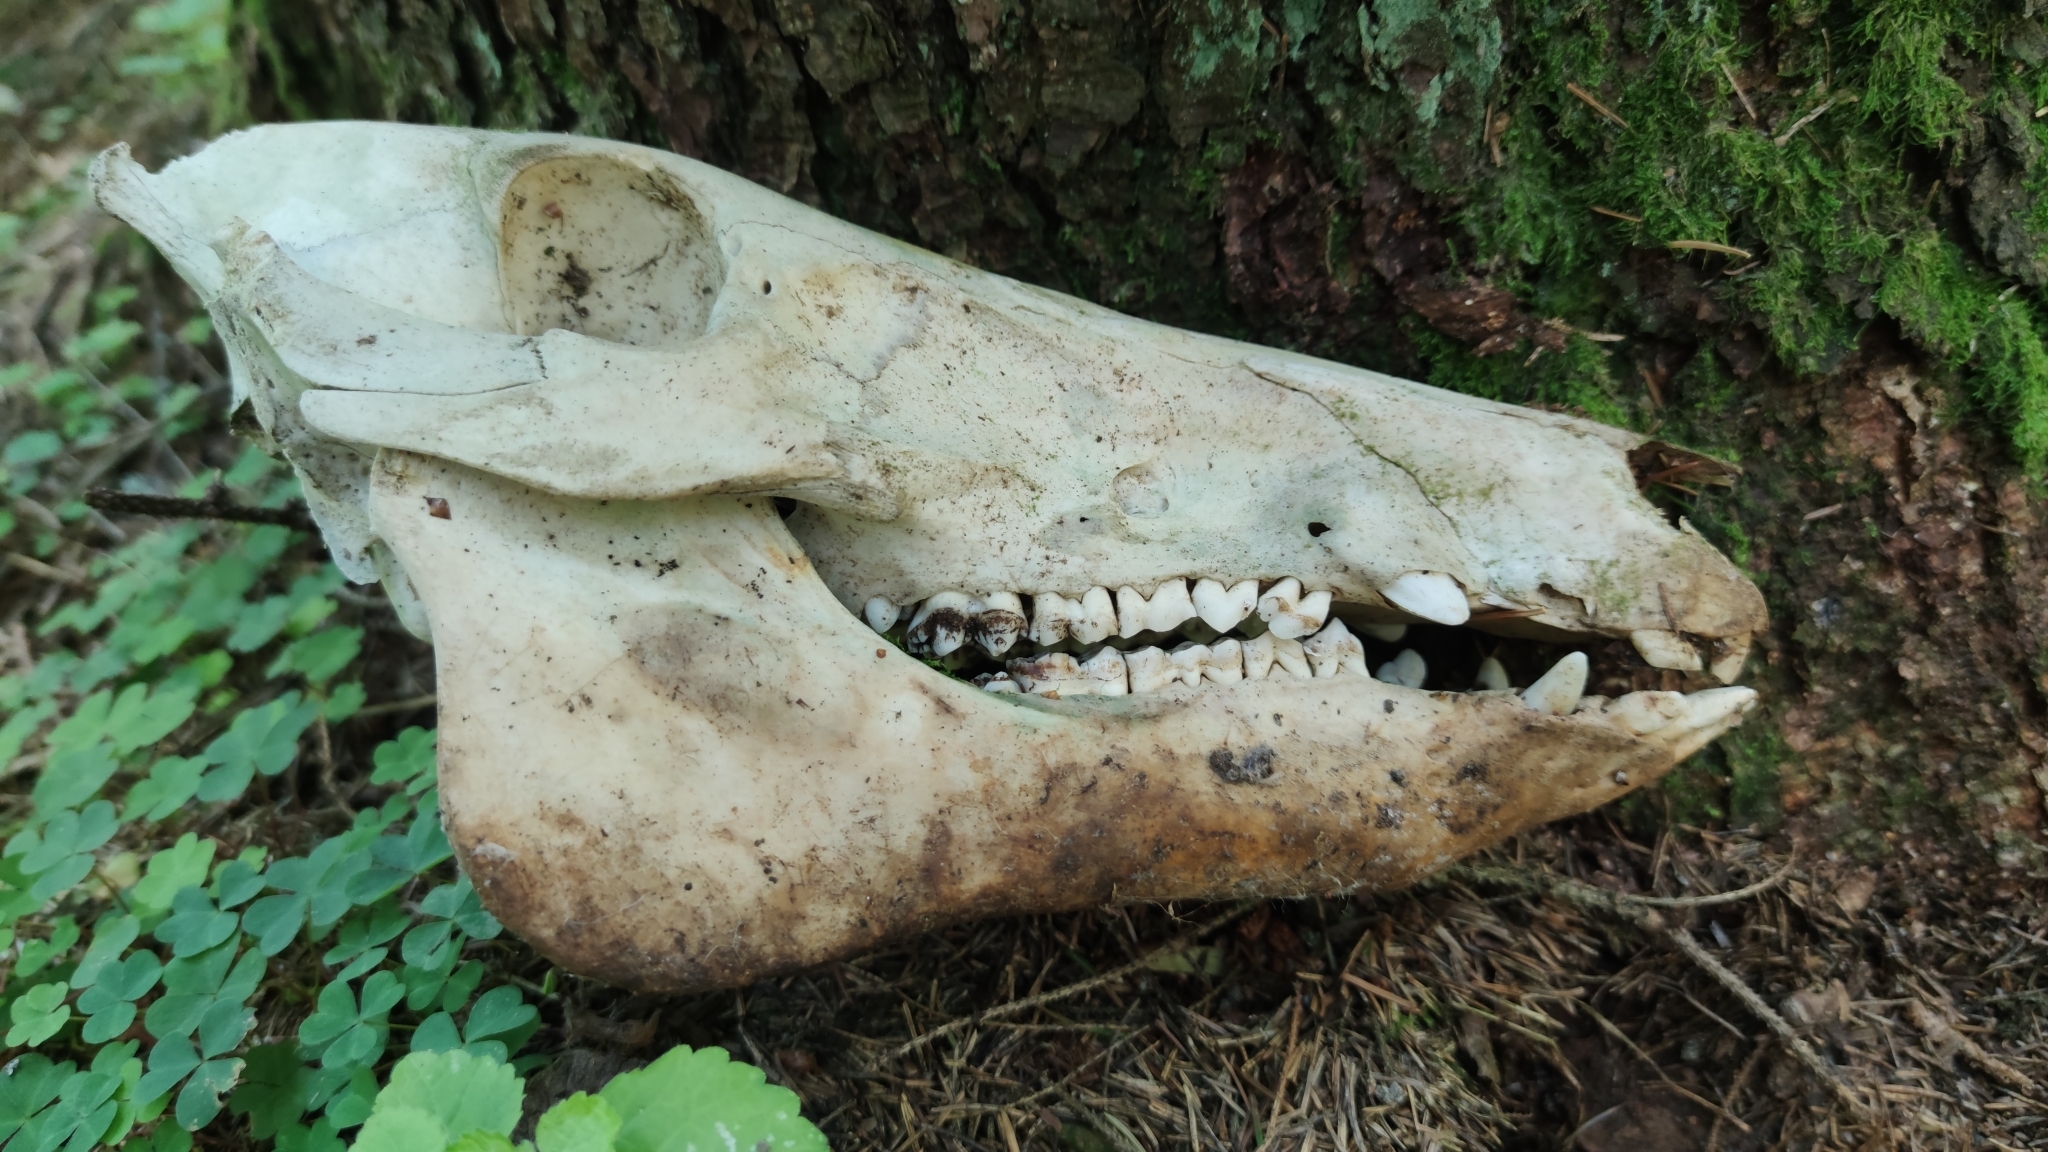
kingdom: Animalia
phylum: Chordata
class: Mammalia
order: Artiodactyla
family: Suidae
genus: Sus
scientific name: Sus scrofa
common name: Wild boar
